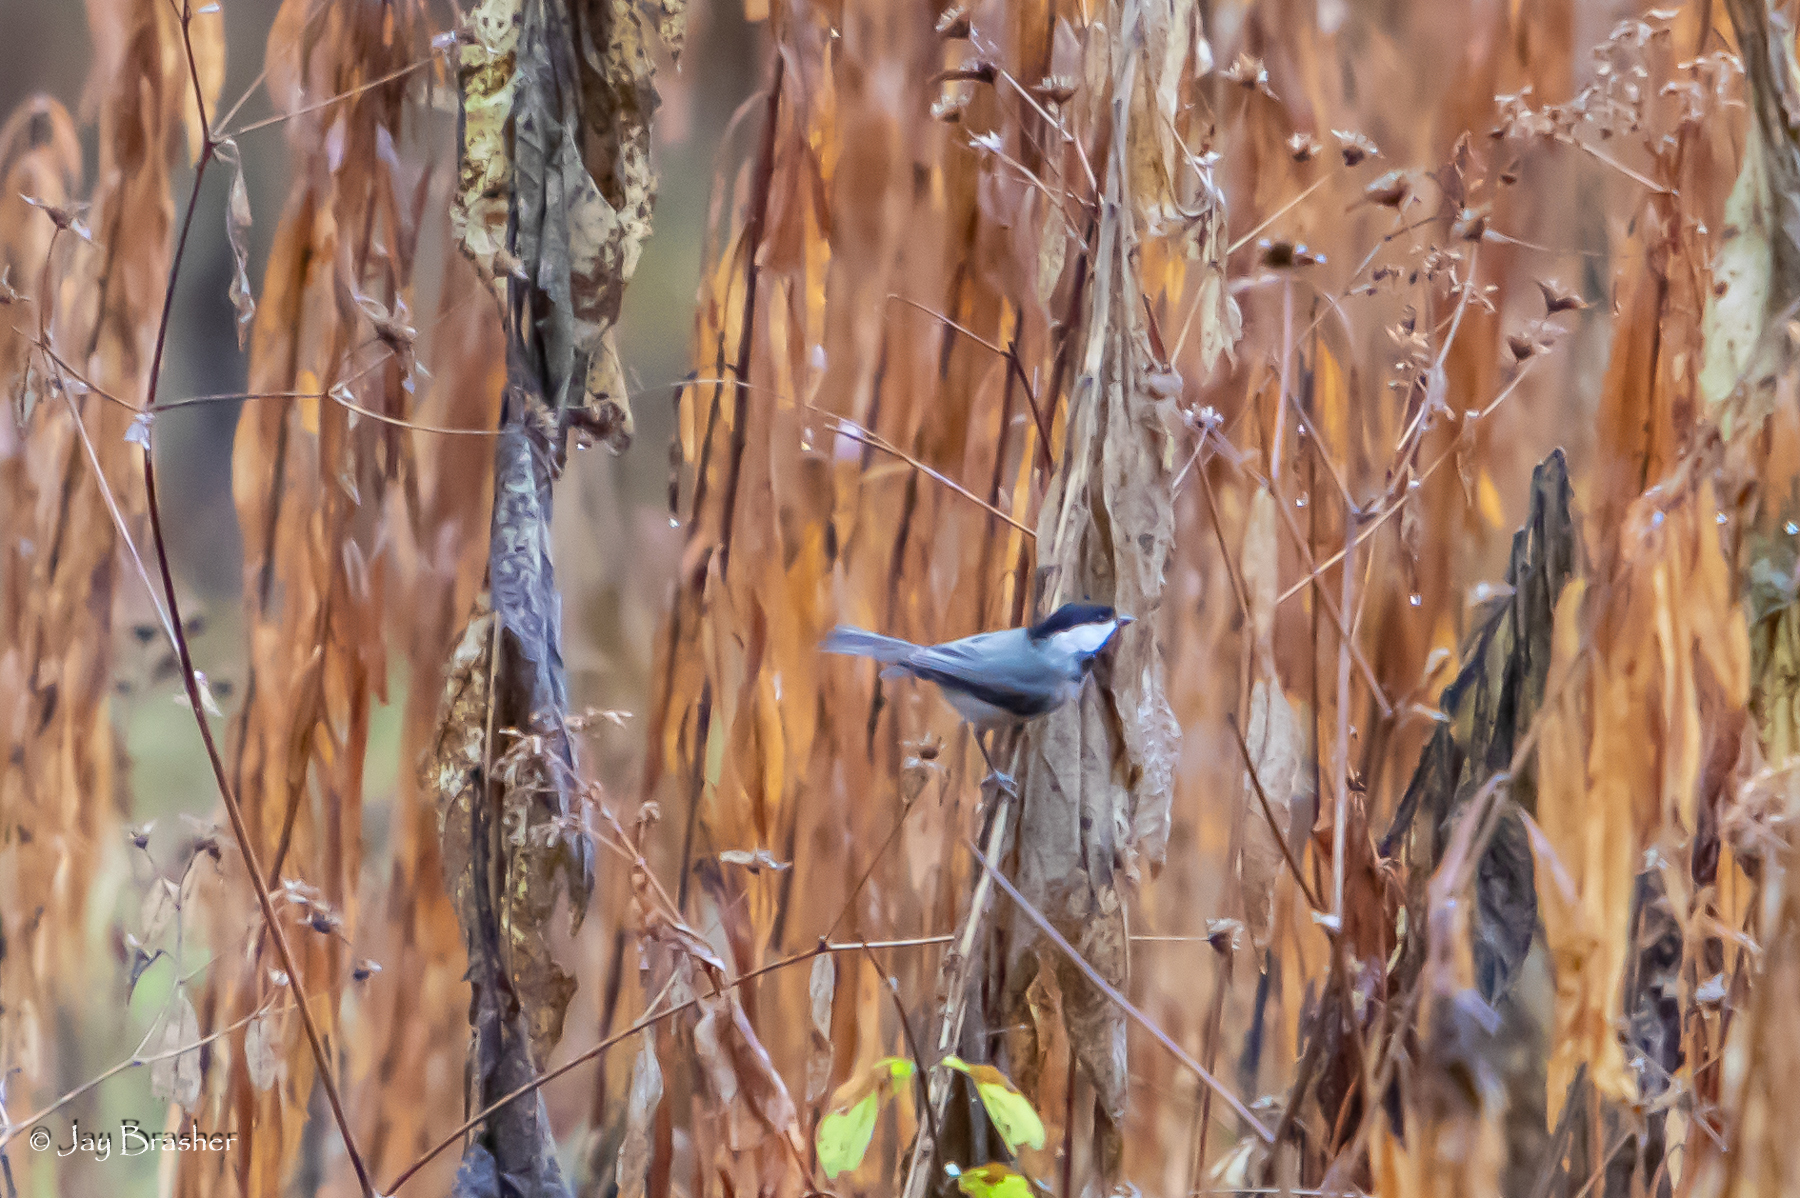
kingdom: Animalia
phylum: Chordata
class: Aves
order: Passeriformes
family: Paridae
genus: Poecile
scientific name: Poecile carolinensis
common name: Carolina chickadee
